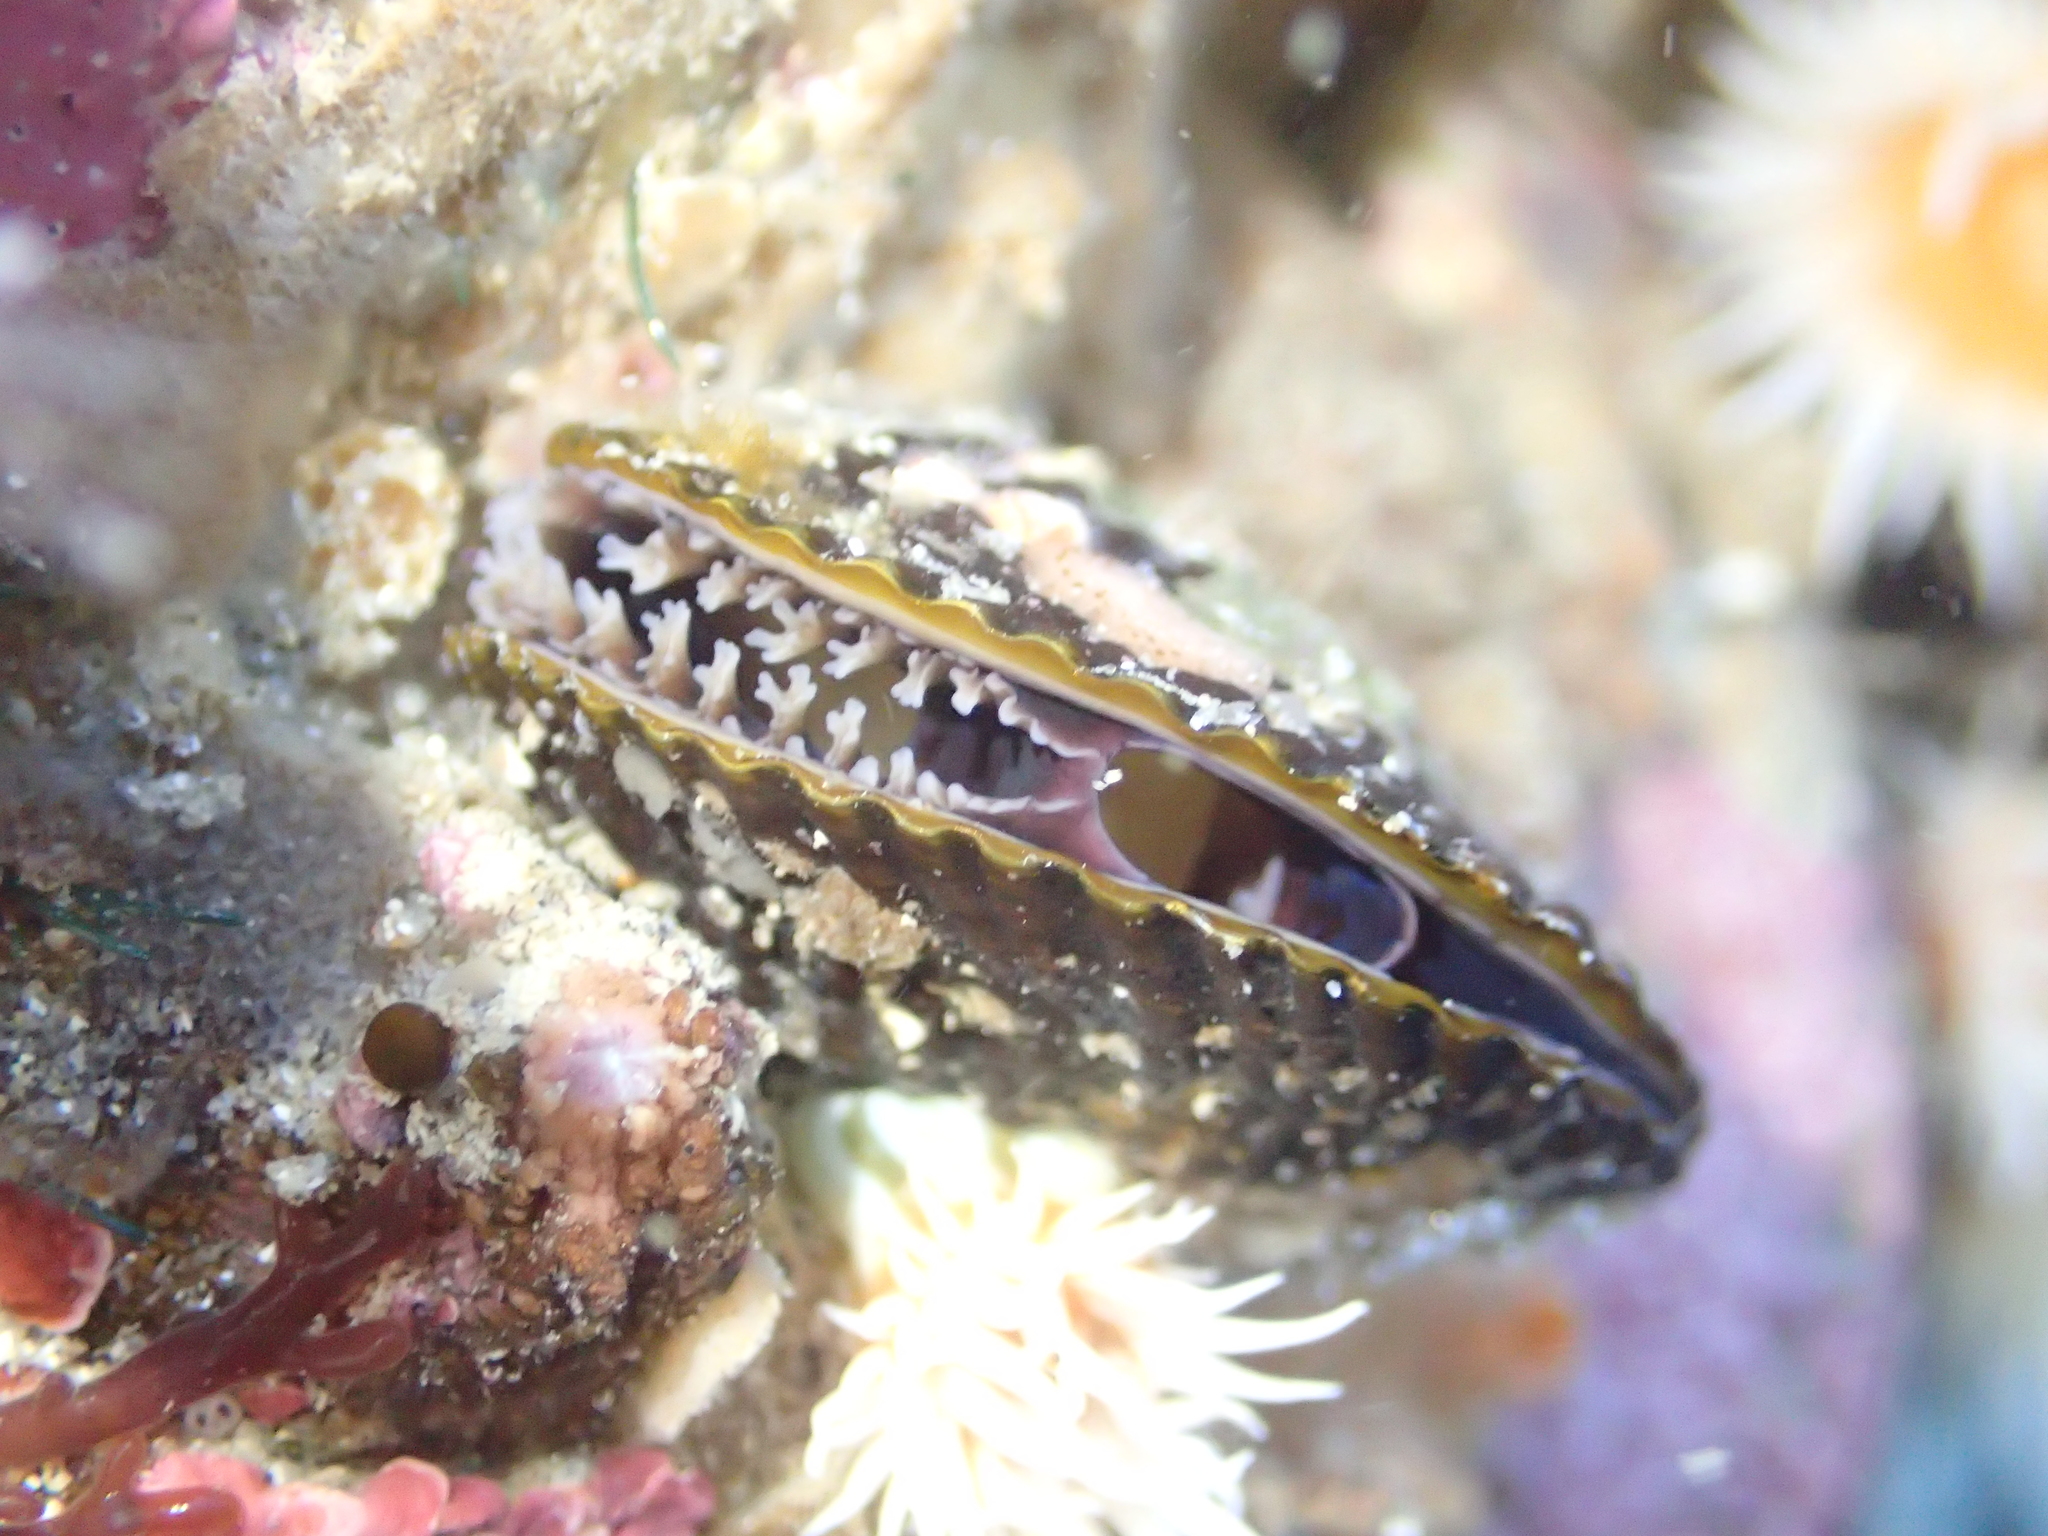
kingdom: Animalia
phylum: Mollusca
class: Bivalvia
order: Mytilida
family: Mytilidae
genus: Aulacomya
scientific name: Aulacomya maoriana
